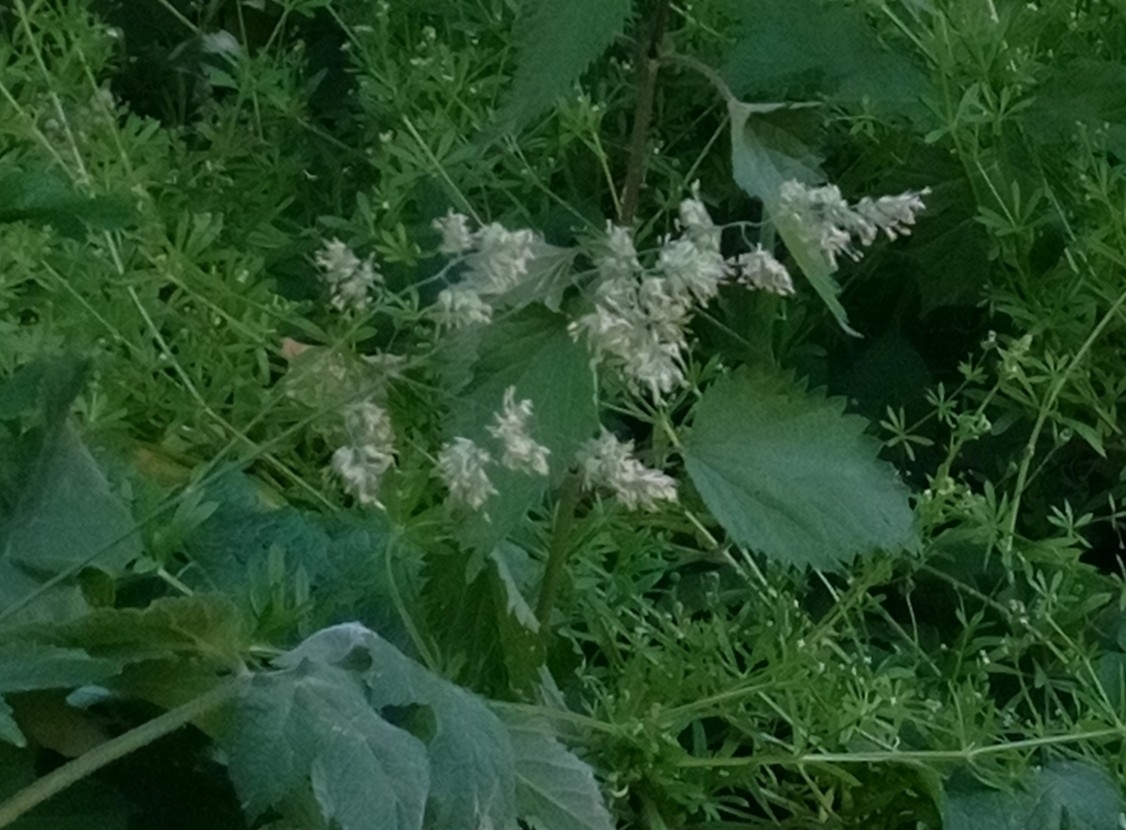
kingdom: Plantae
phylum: Tracheophyta
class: Liliopsida
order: Poales
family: Poaceae
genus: Dactylis
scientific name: Dactylis glomerata
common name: Orchardgrass
